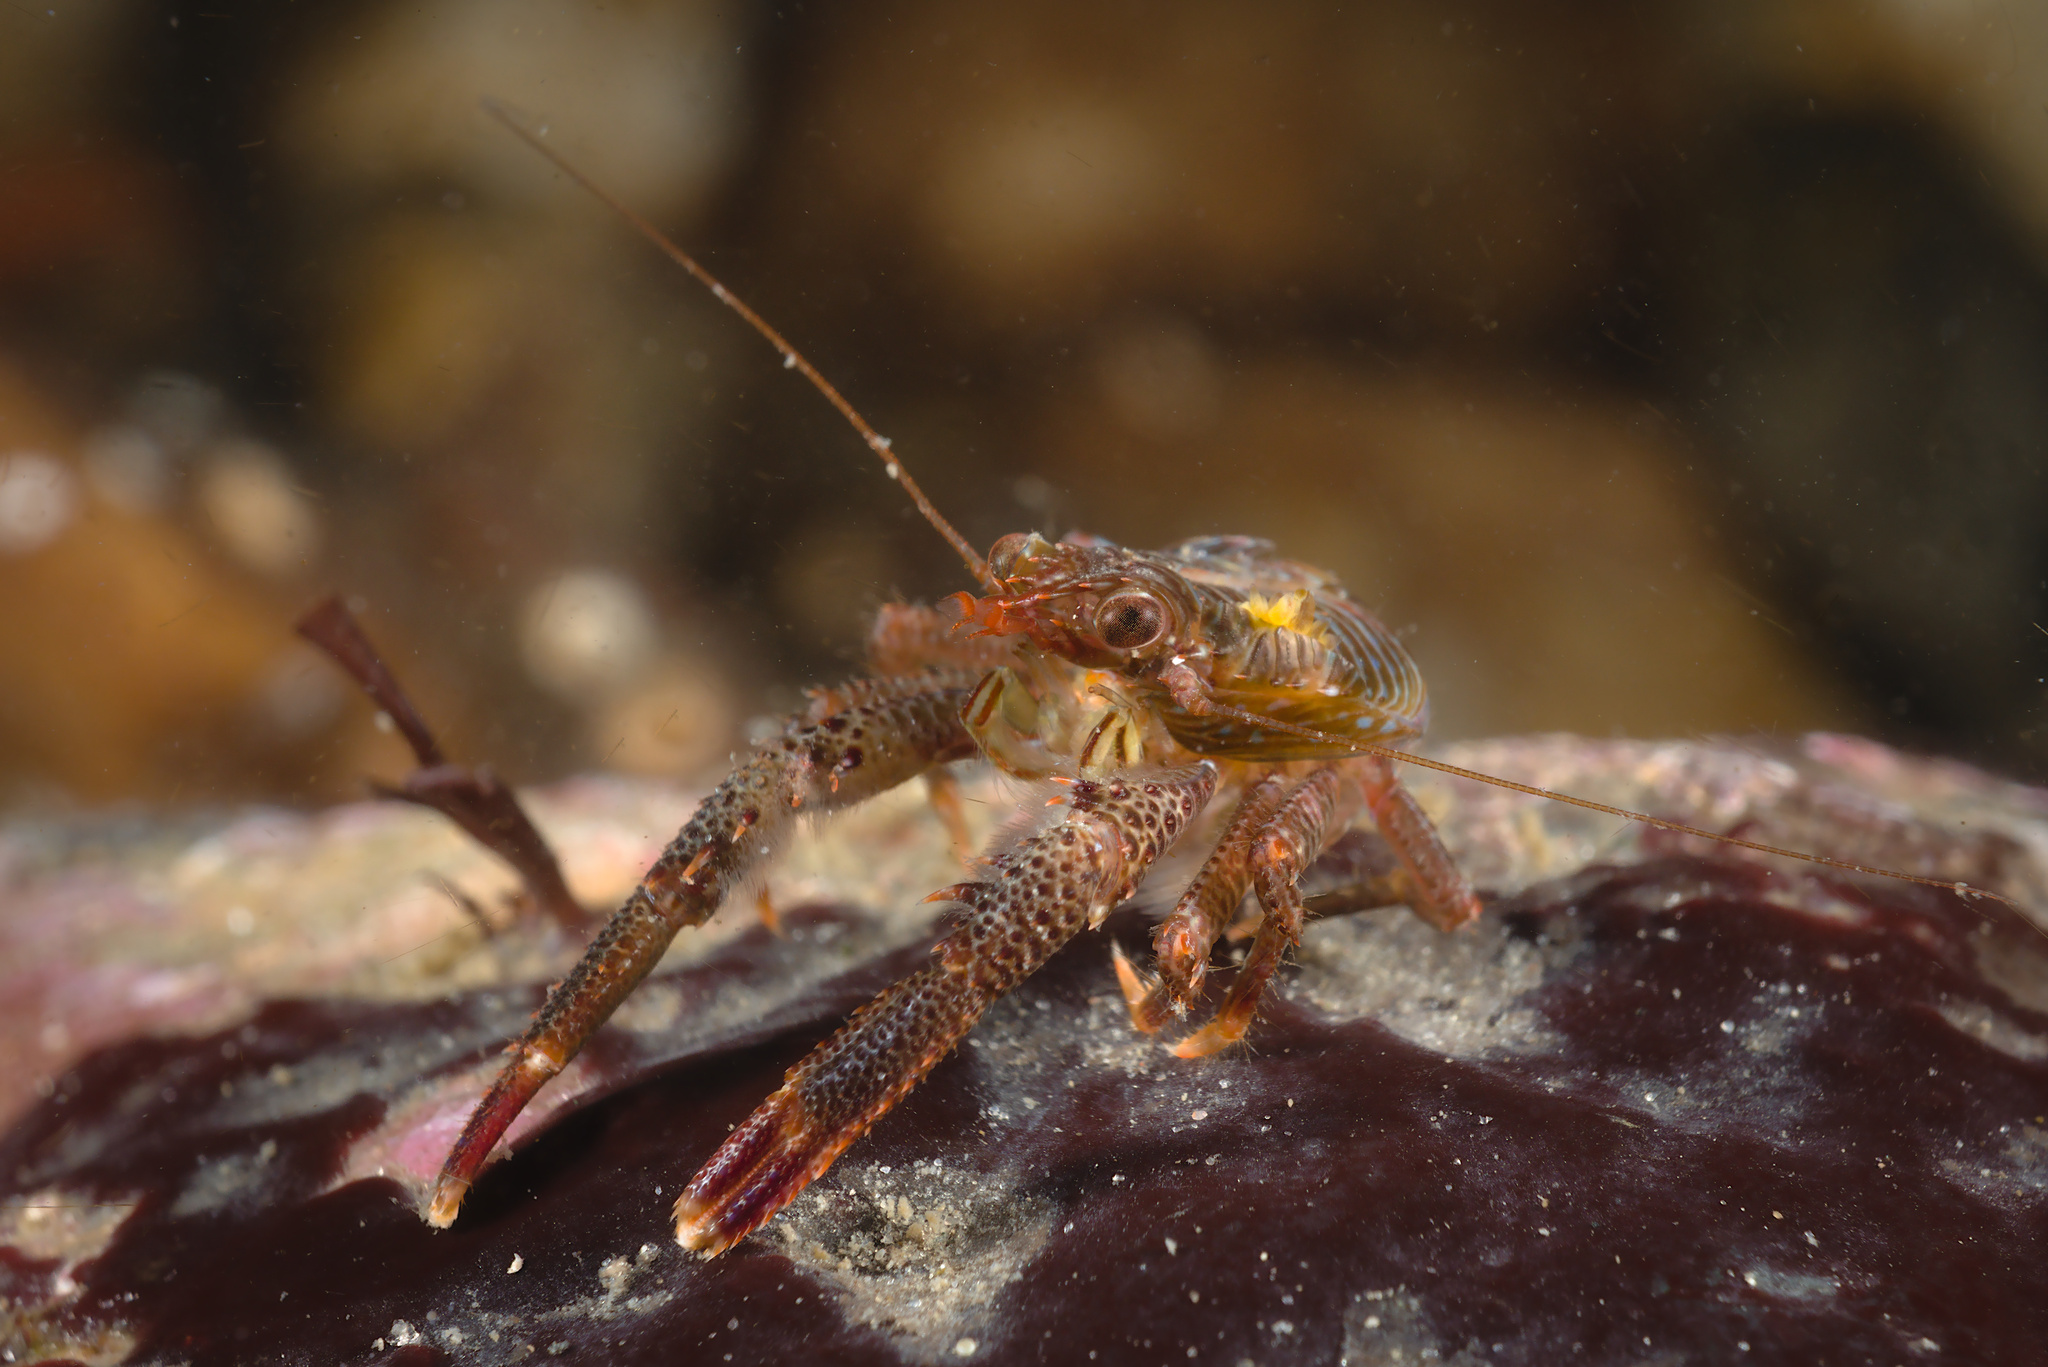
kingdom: Animalia
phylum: Arthropoda
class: Malacostraca
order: Decapoda
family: Galatheidae
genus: Galathea
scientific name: Galathea squamifera
